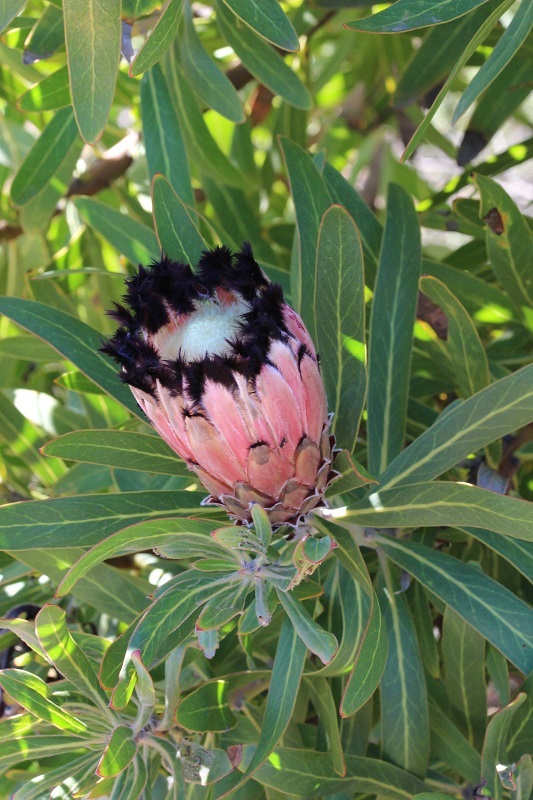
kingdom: Plantae
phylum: Tracheophyta
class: Magnoliopsida
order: Proteales
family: Proteaceae
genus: Protea
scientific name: Protea neriifolia
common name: Blue sugarbush
